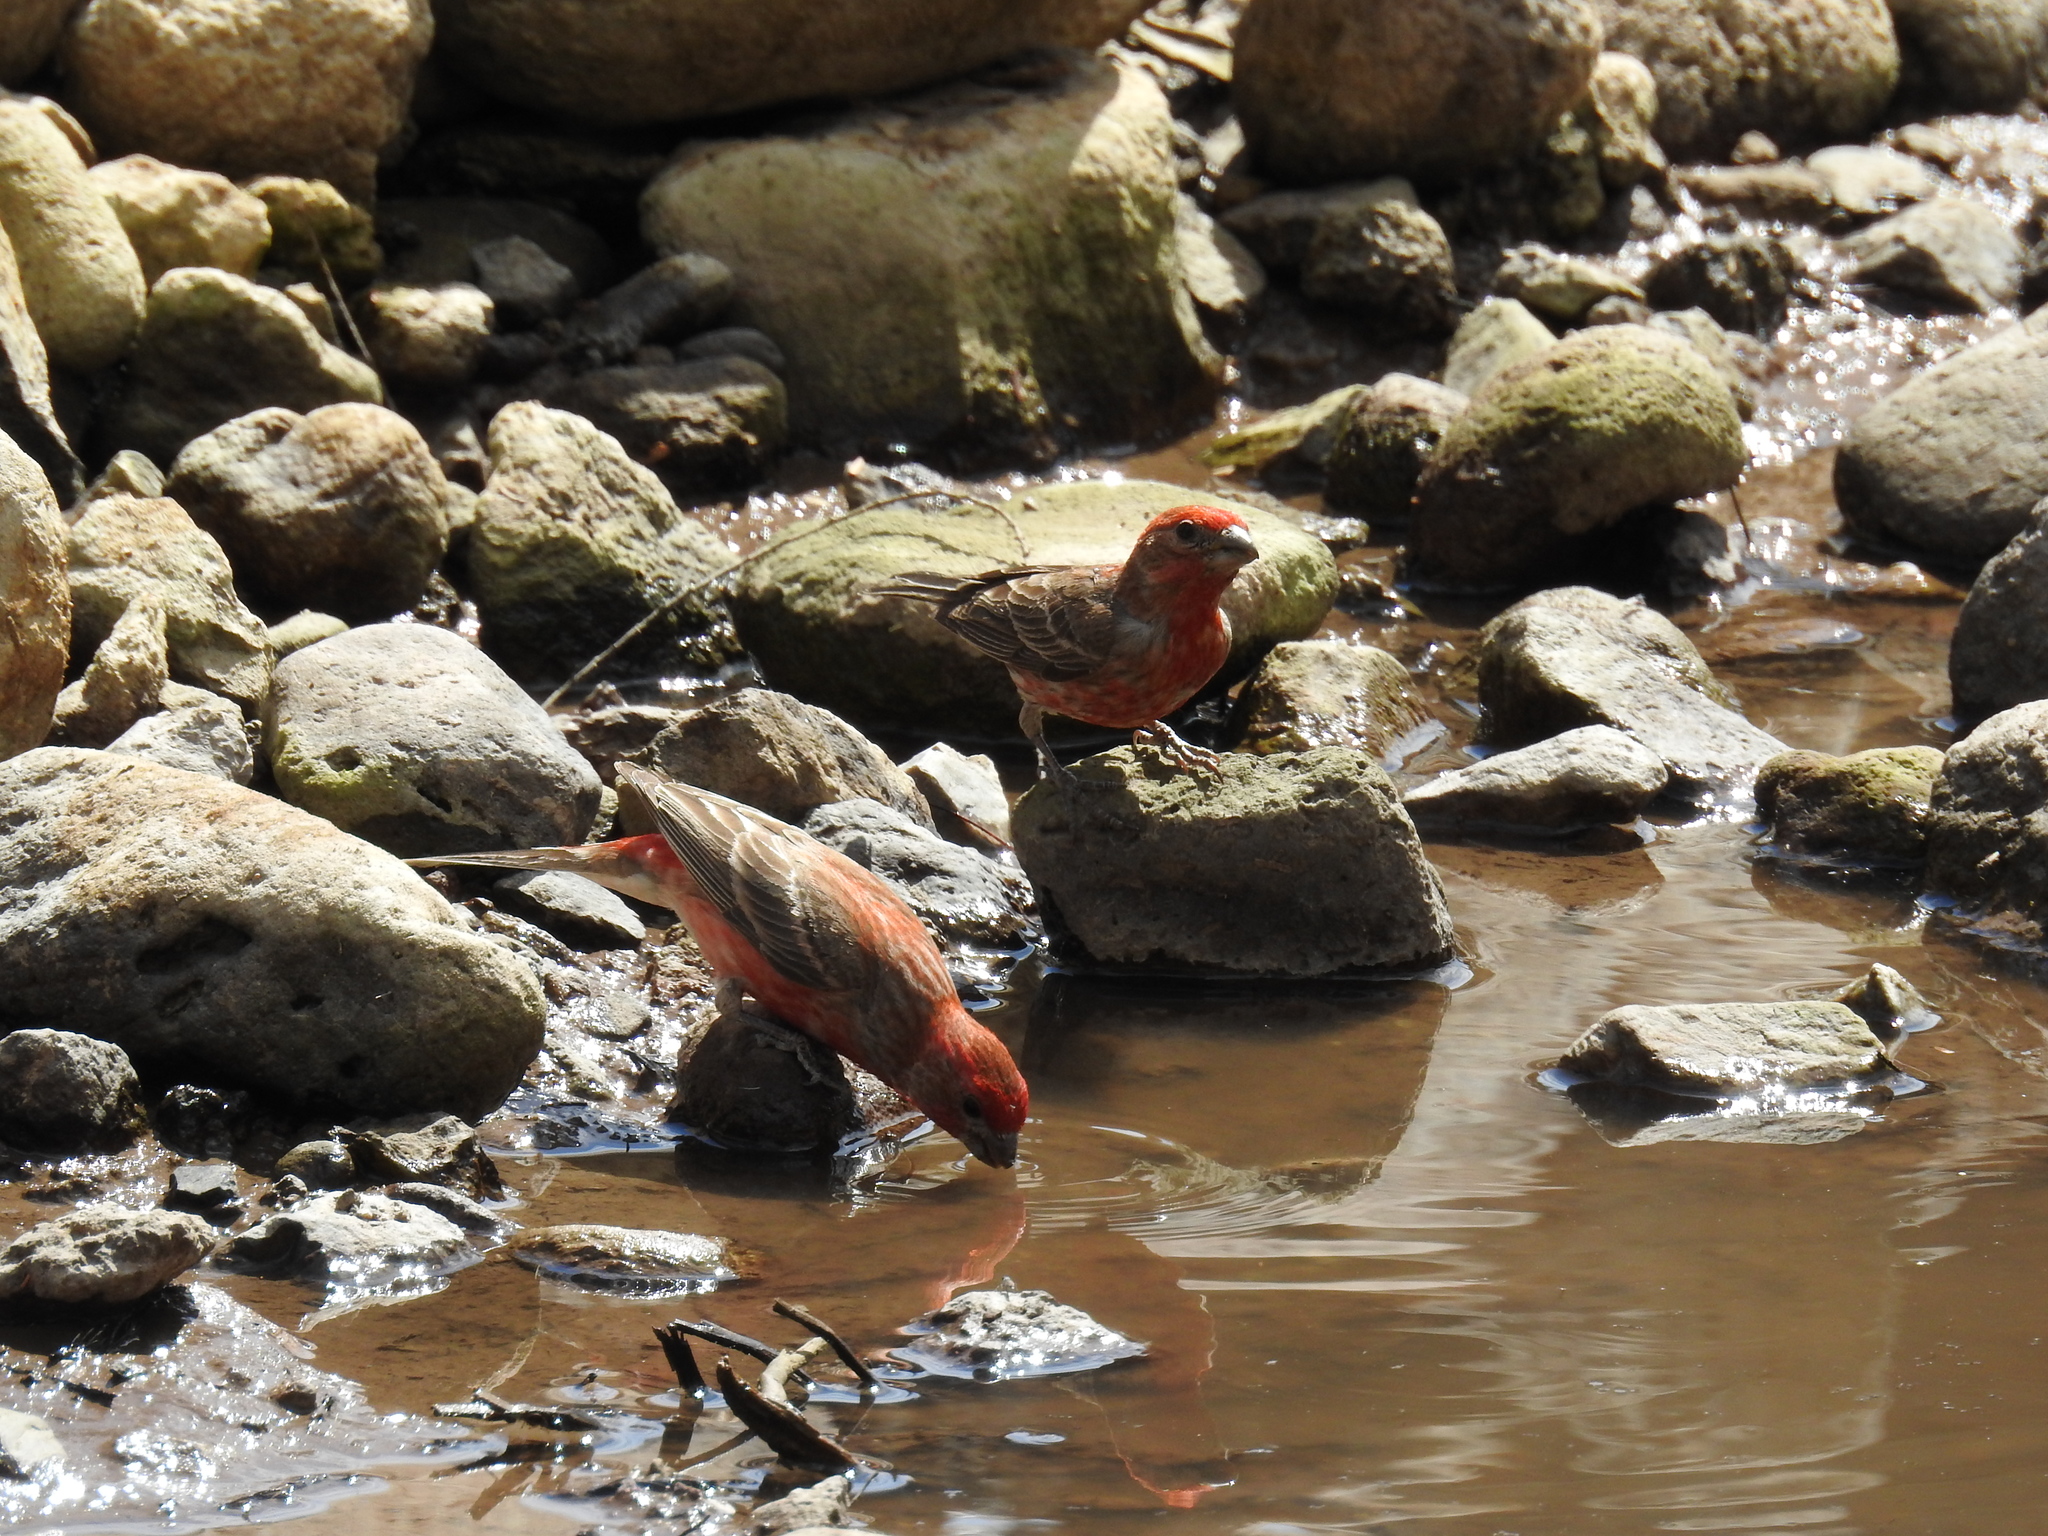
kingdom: Animalia
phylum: Chordata
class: Aves
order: Passeriformes
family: Fringillidae
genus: Haemorhous
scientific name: Haemorhous mexicanus
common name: House finch
